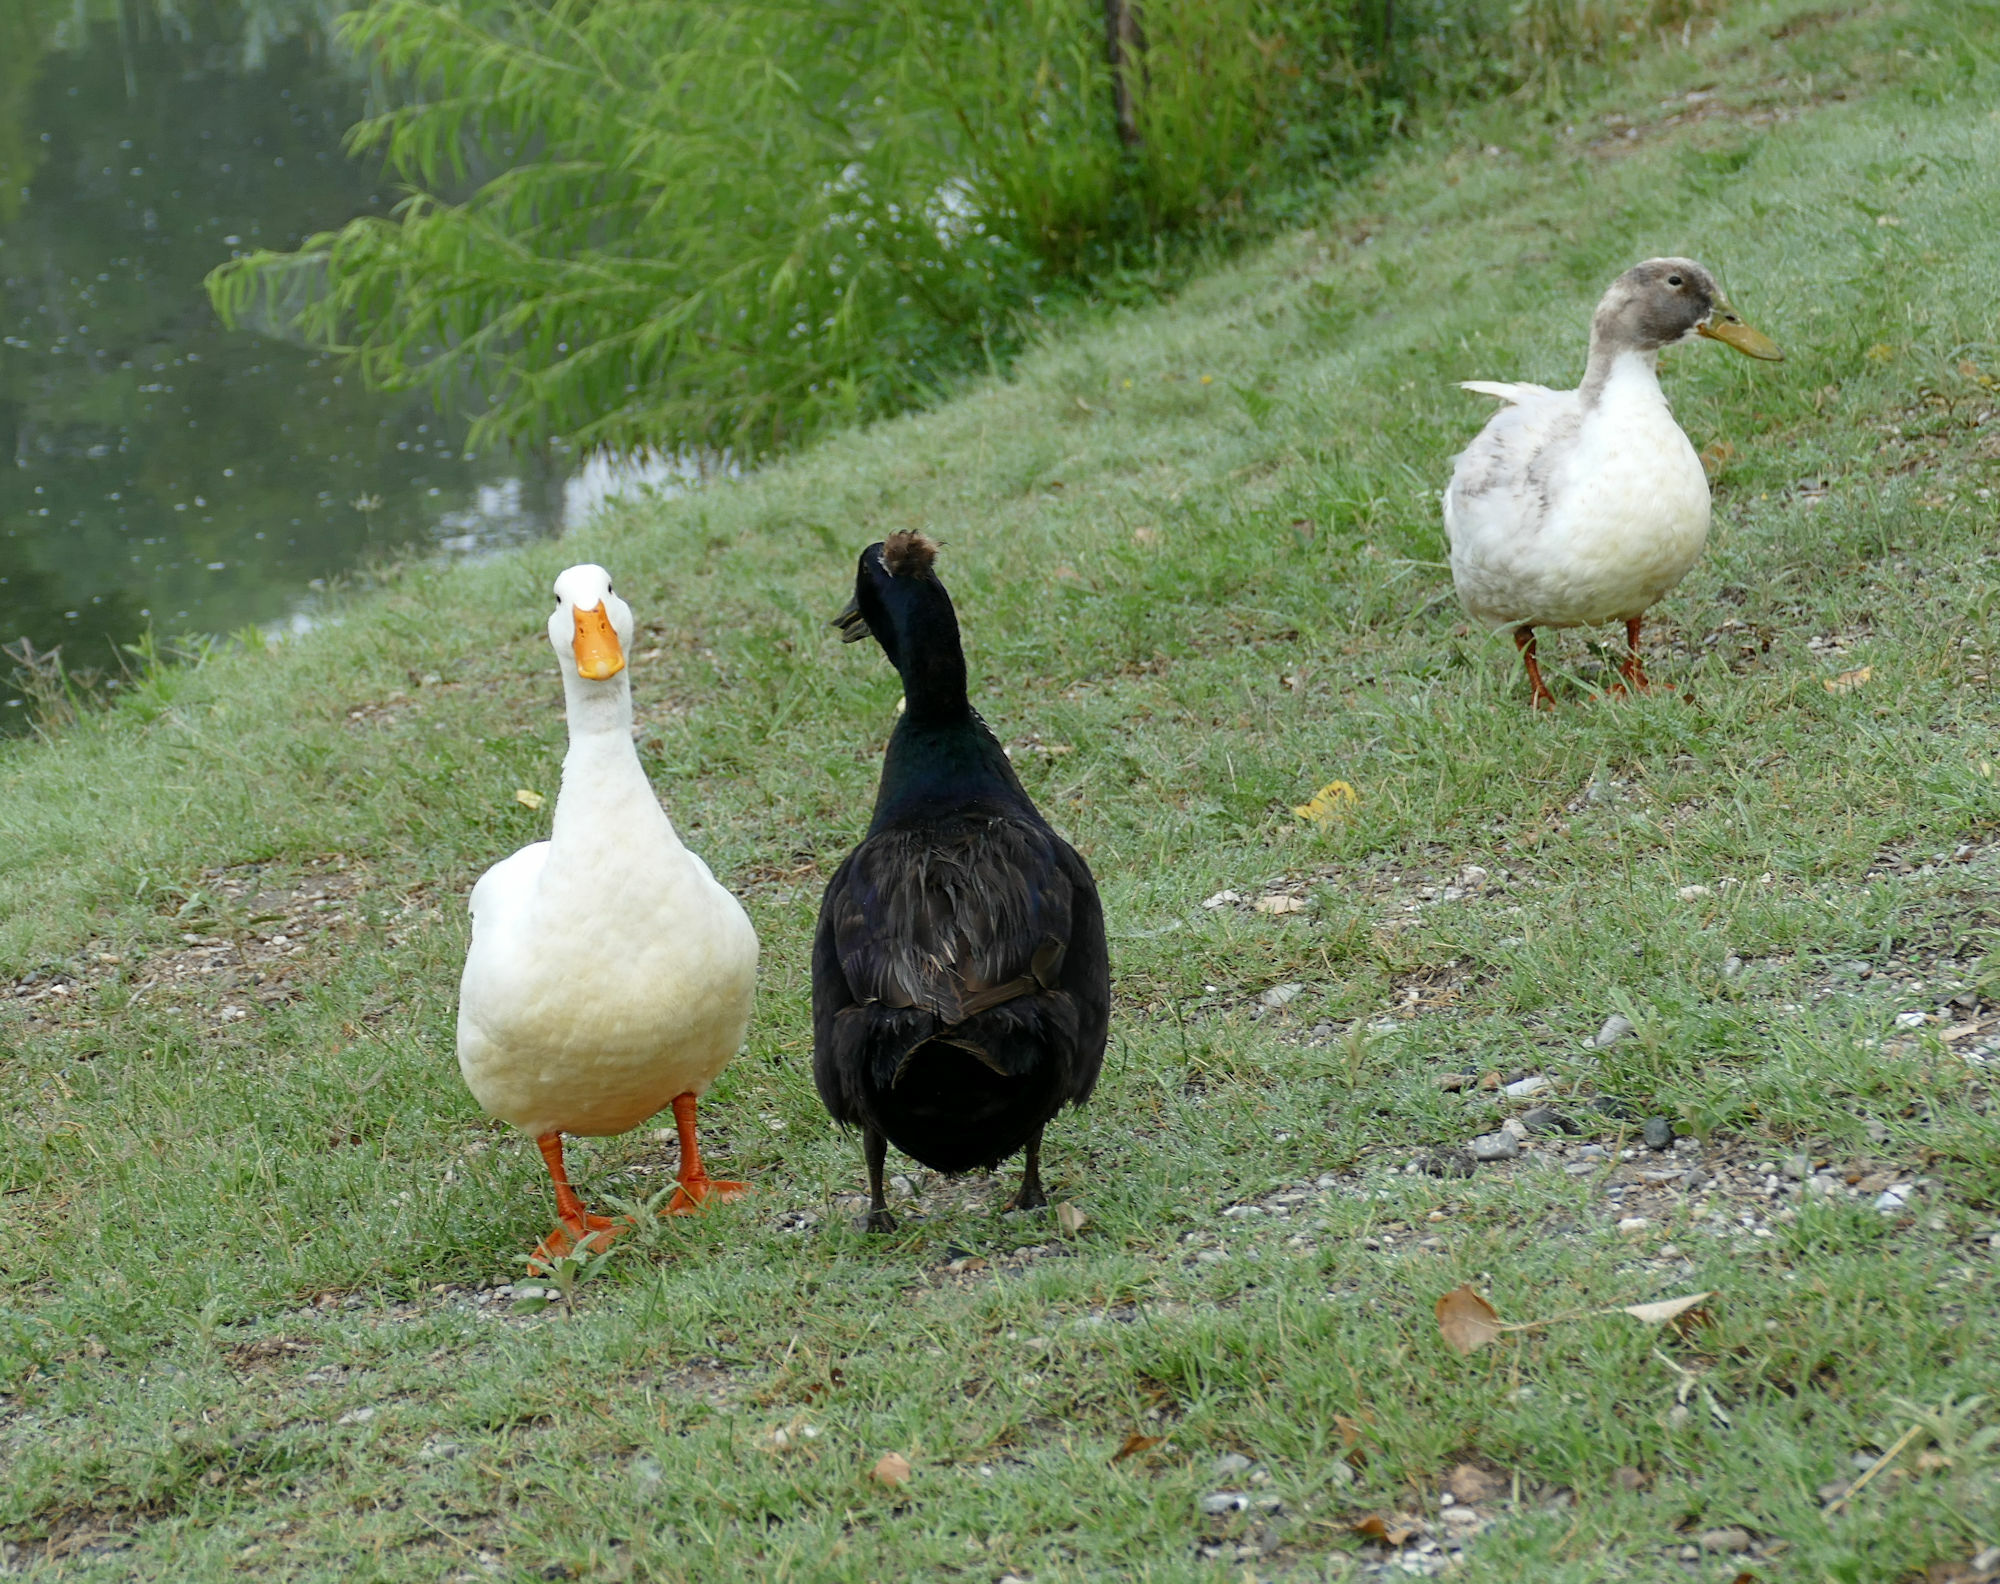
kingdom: Animalia
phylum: Chordata
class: Aves
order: Anseriformes
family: Anatidae
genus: Anas
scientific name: Anas platyrhynchos
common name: Mallard
